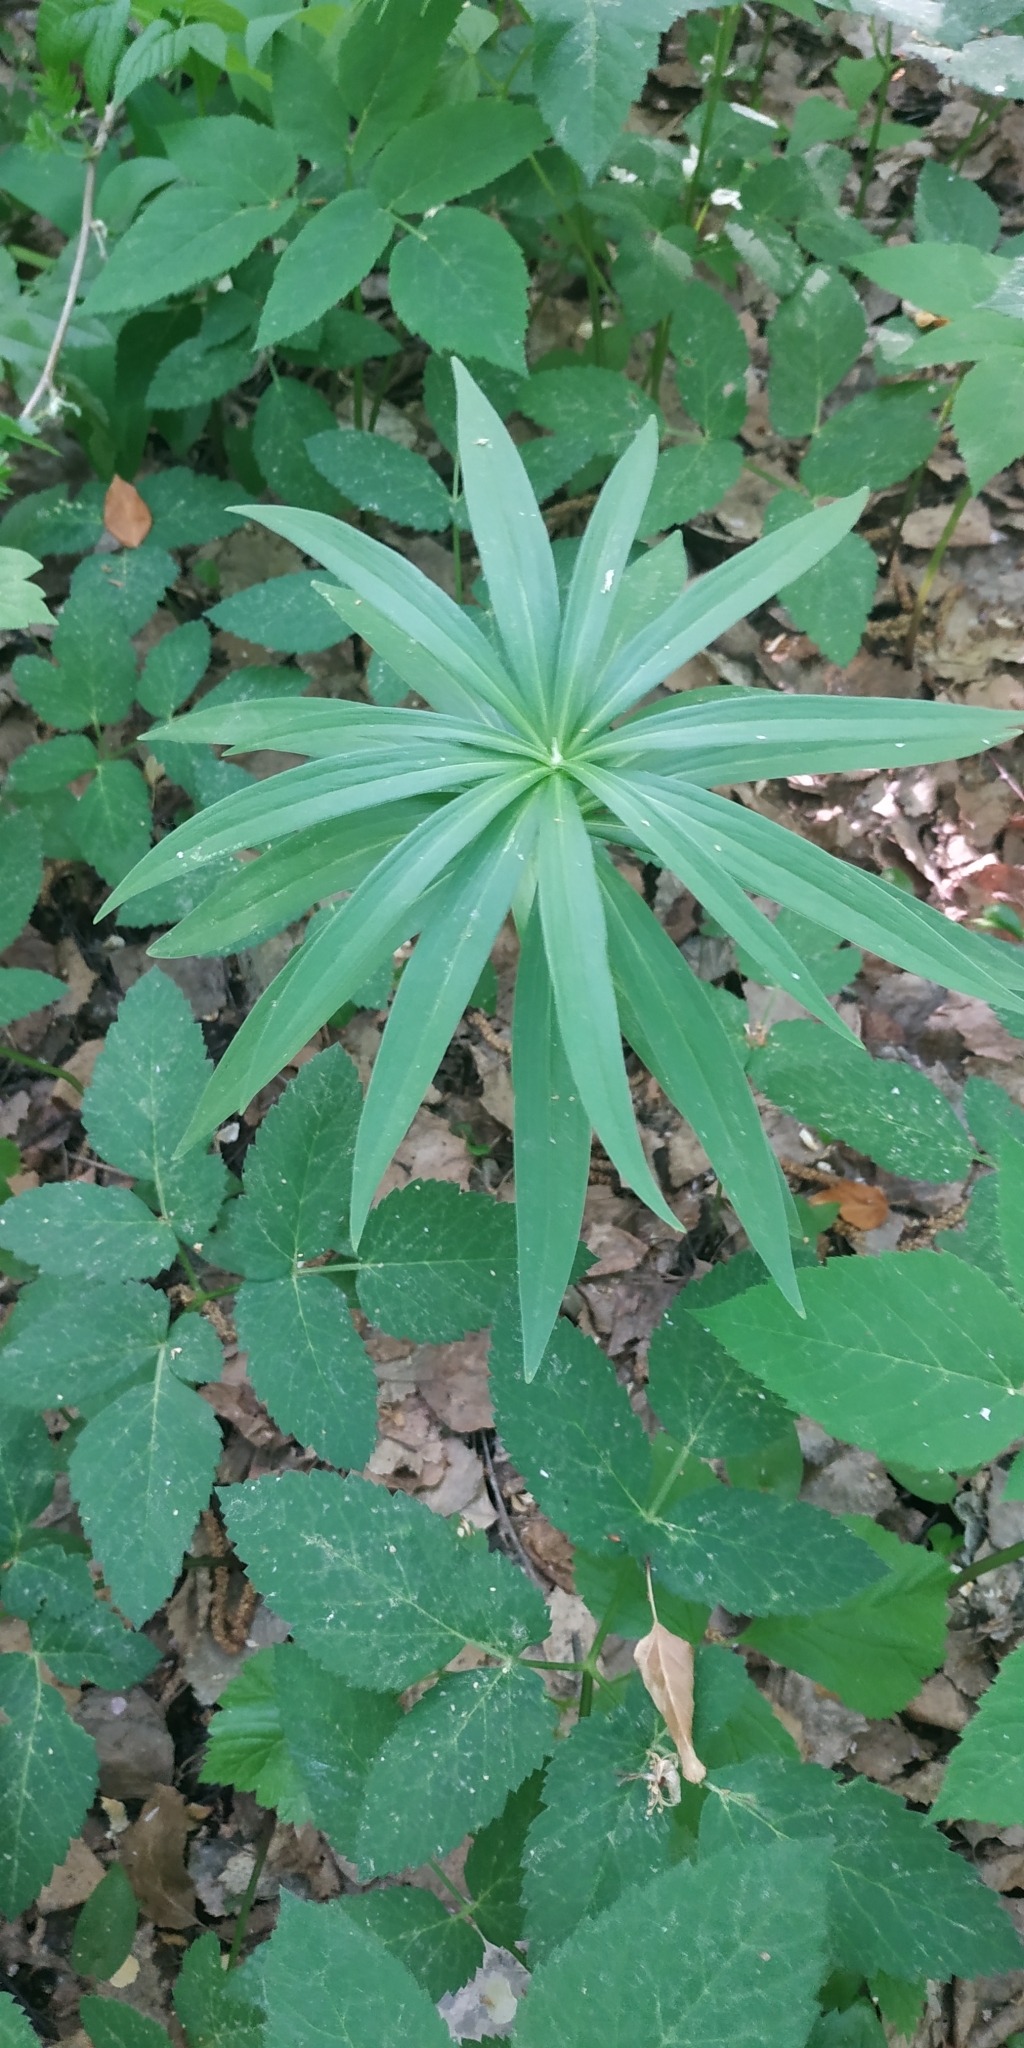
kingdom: Plantae
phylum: Tracheophyta
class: Liliopsida
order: Liliales
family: Liliaceae
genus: Lilium
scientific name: Lilium martagon
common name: Martagon lily
